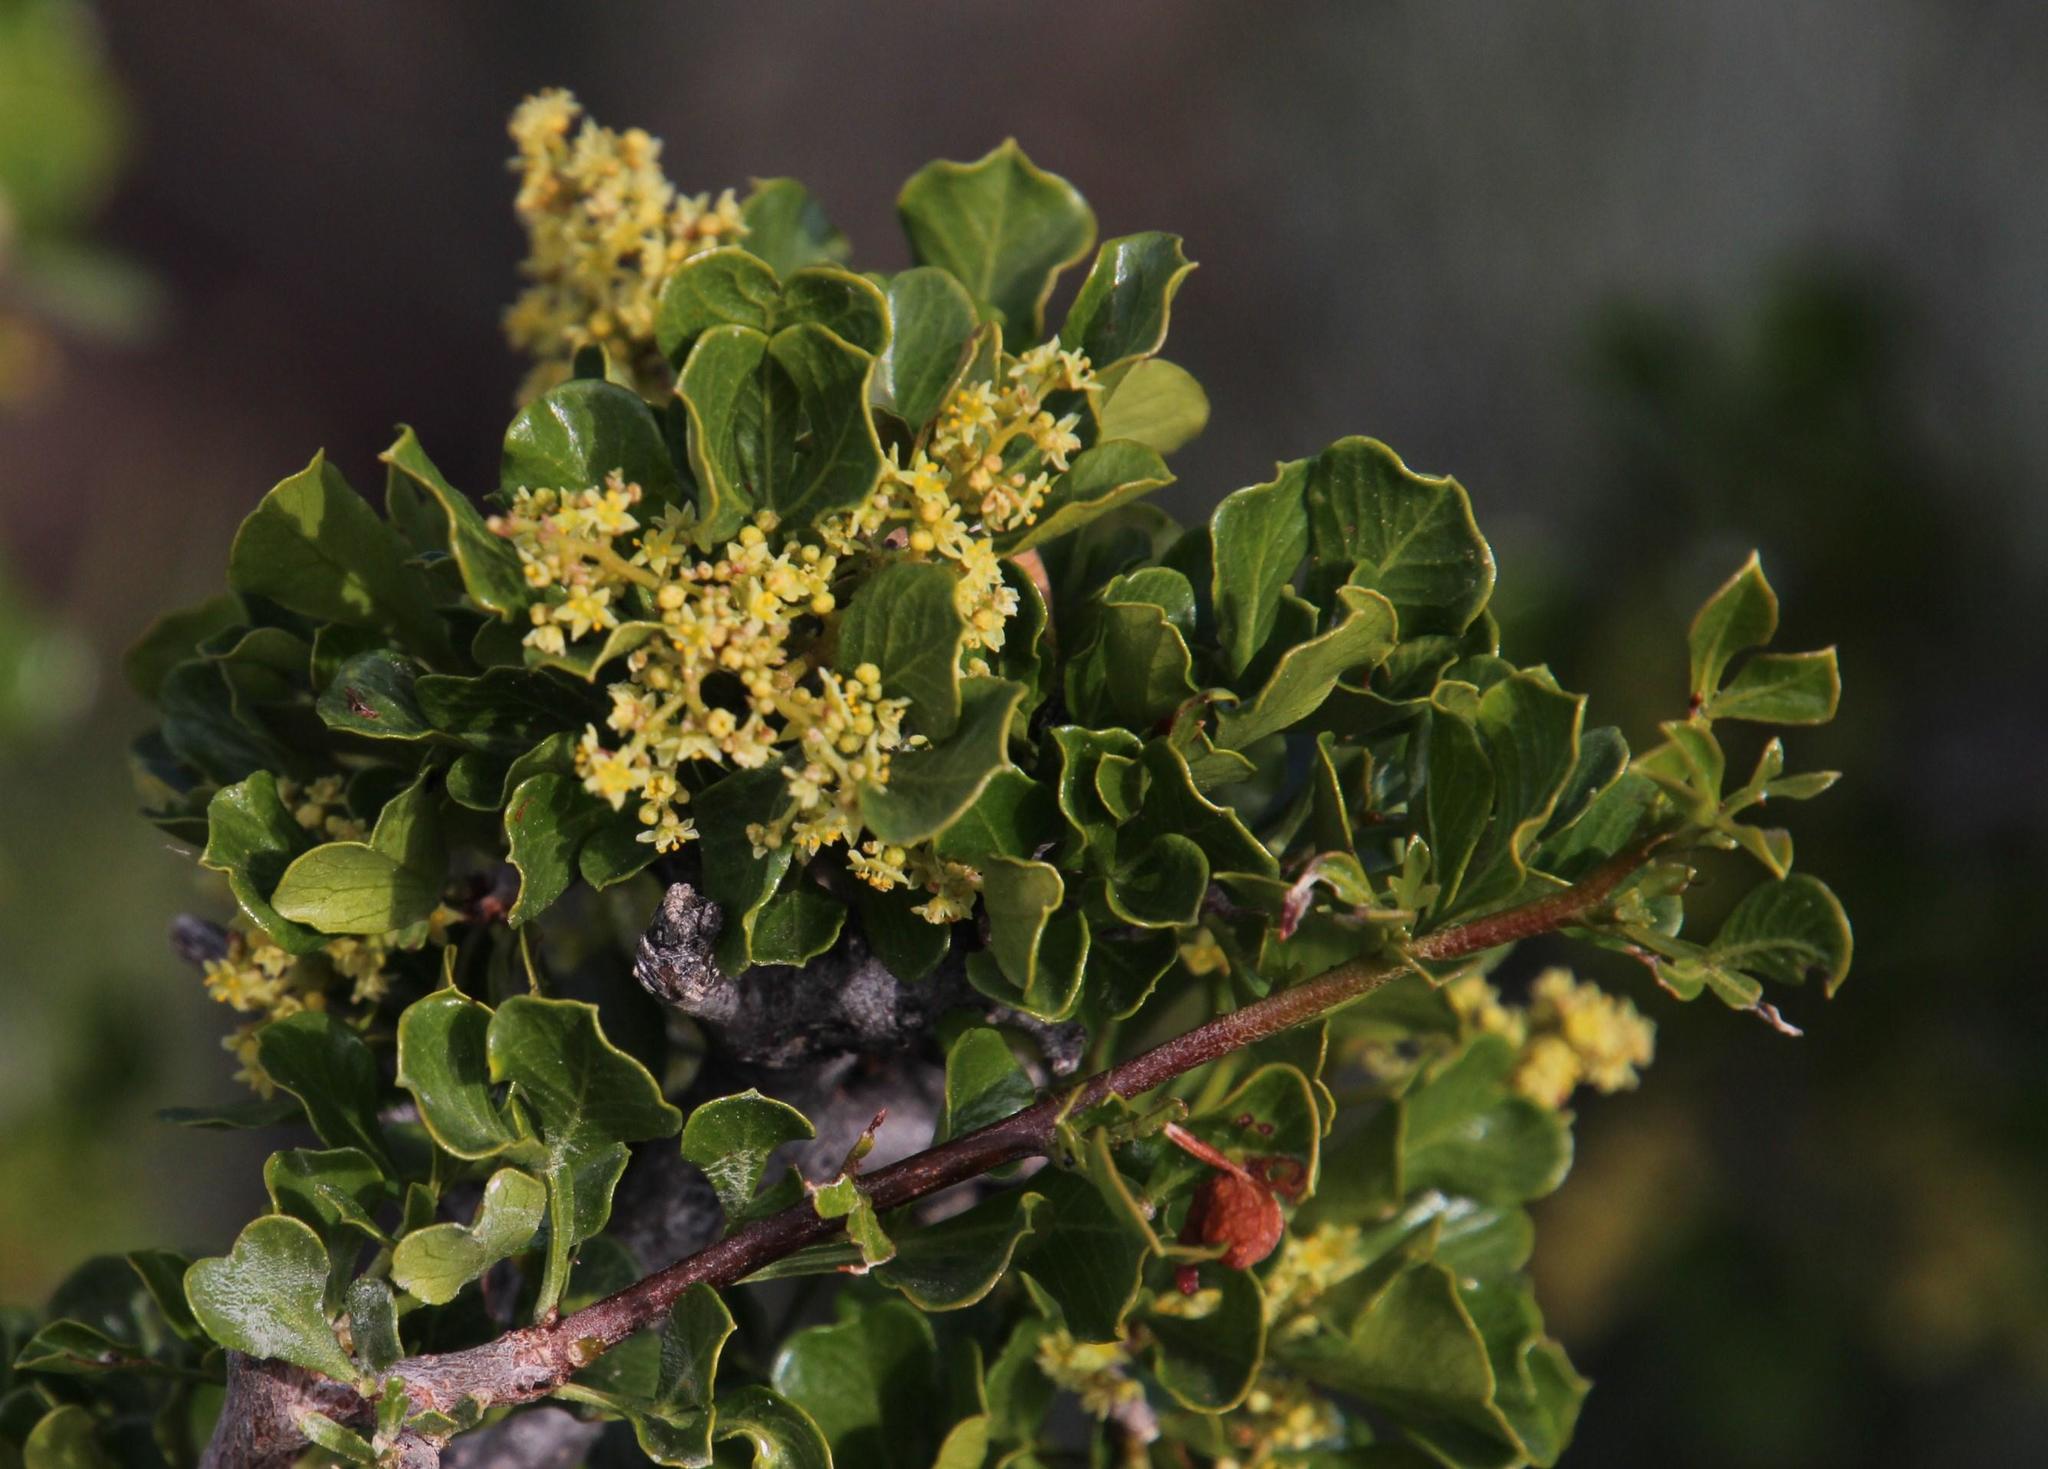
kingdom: Plantae
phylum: Tracheophyta
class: Magnoliopsida
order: Sapindales
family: Anacardiaceae
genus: Searsia
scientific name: Searsia burchellii
